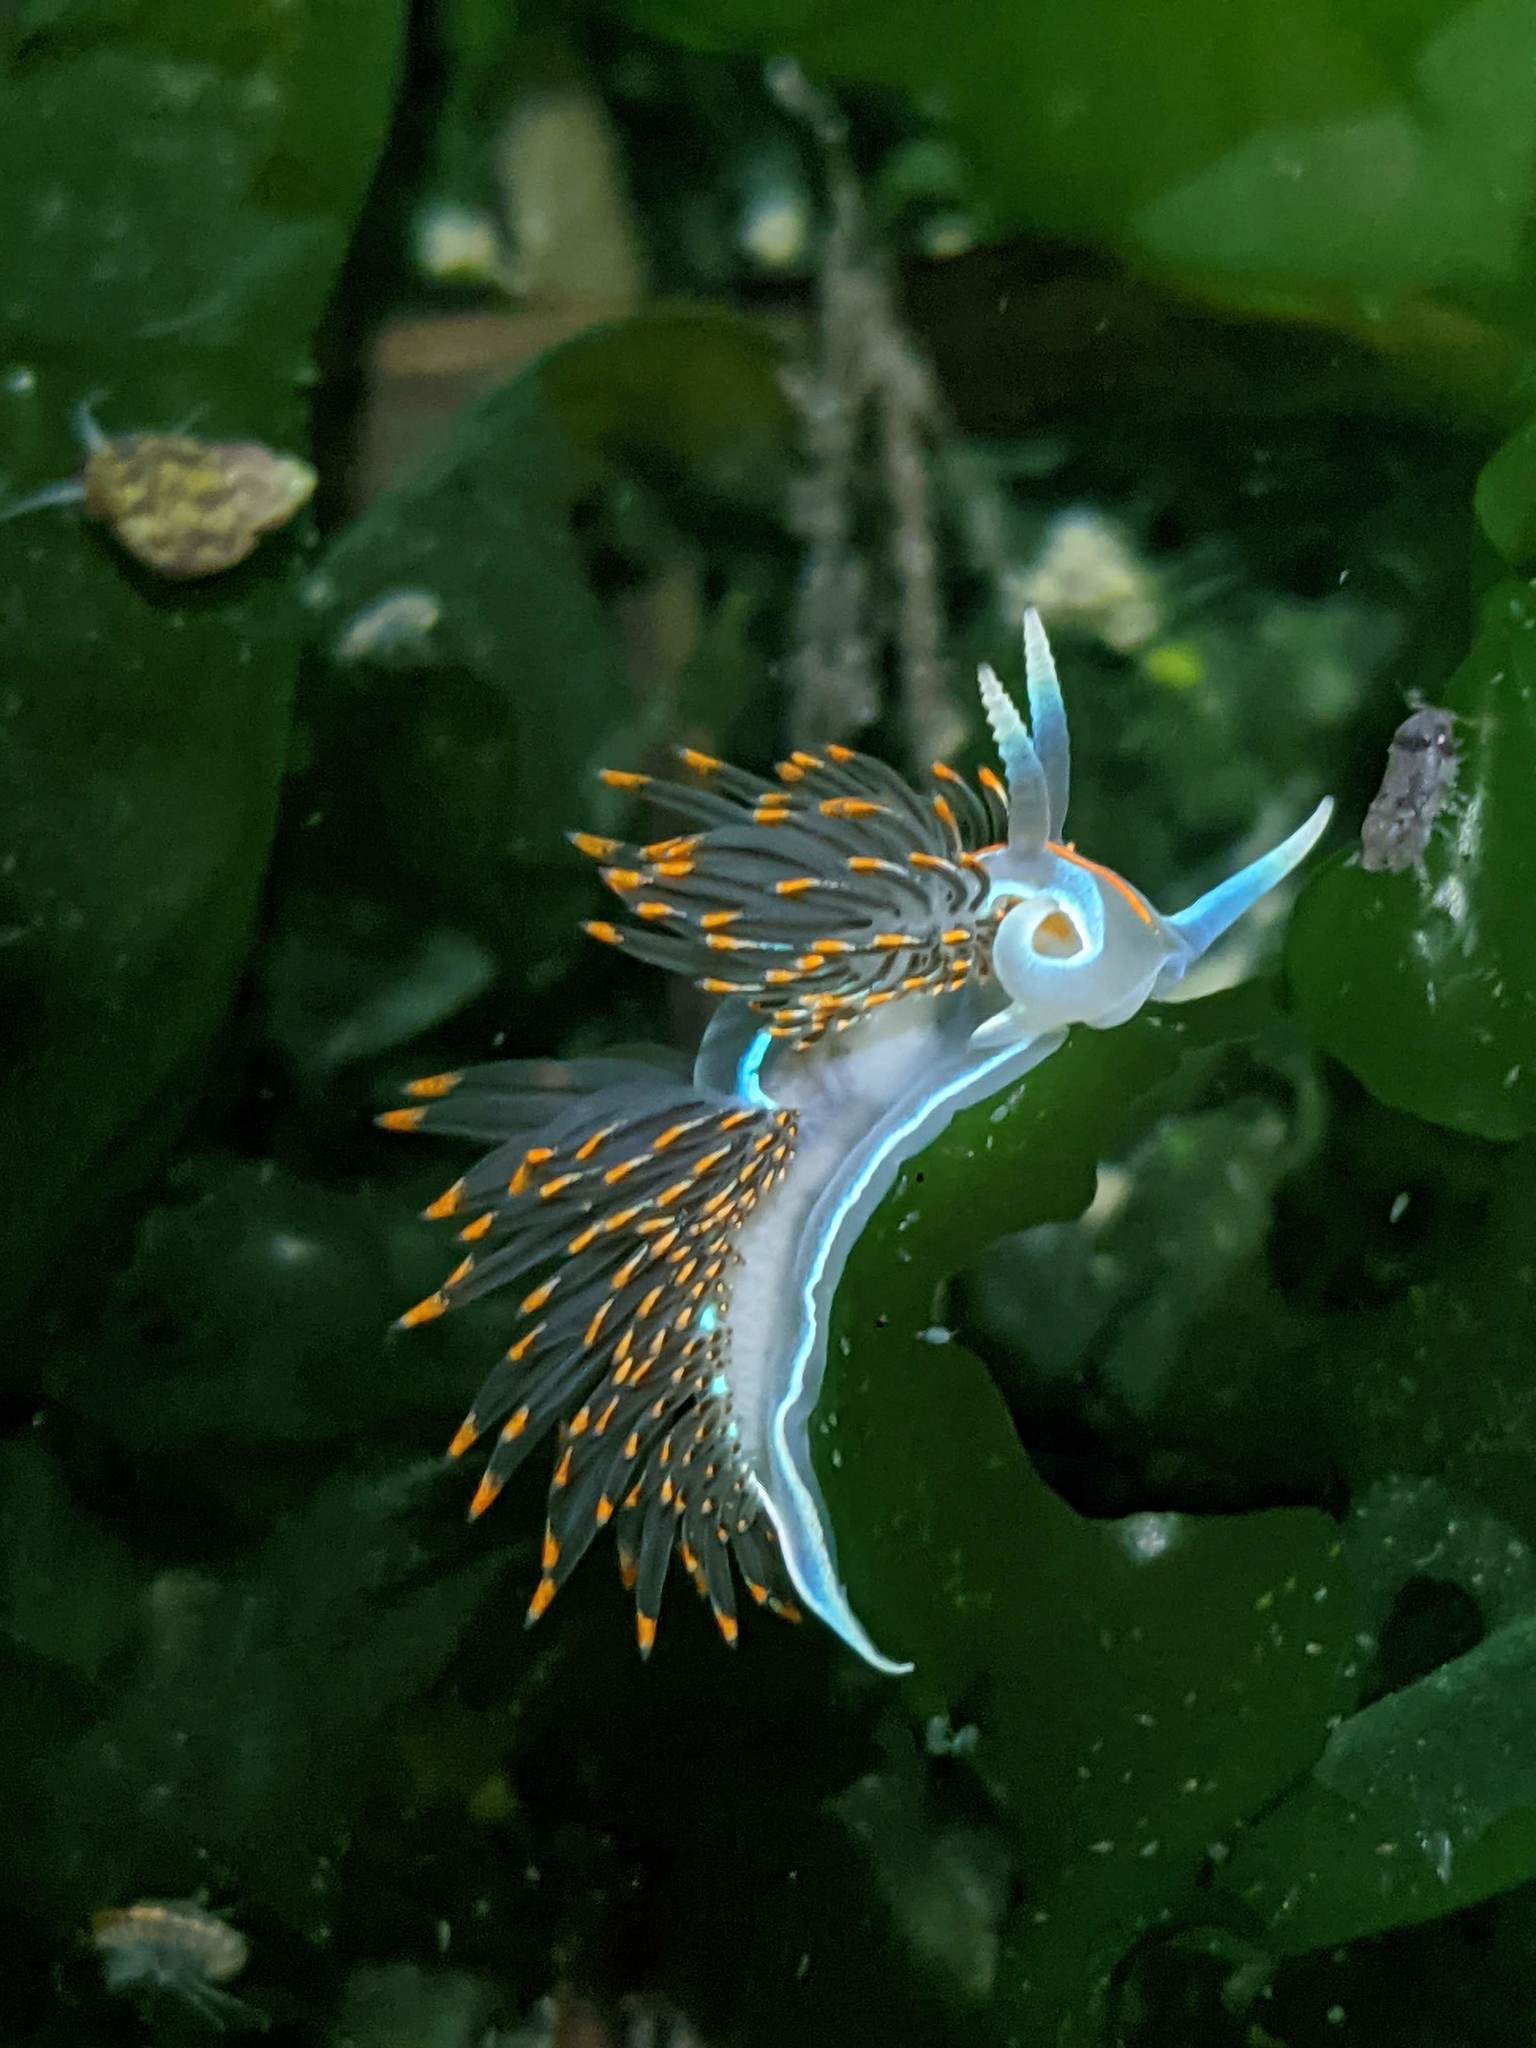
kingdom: Animalia
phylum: Mollusca
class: Gastropoda
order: Nudibranchia
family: Myrrhinidae
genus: Hermissenda
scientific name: Hermissenda crassicornis
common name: Hermissenda
